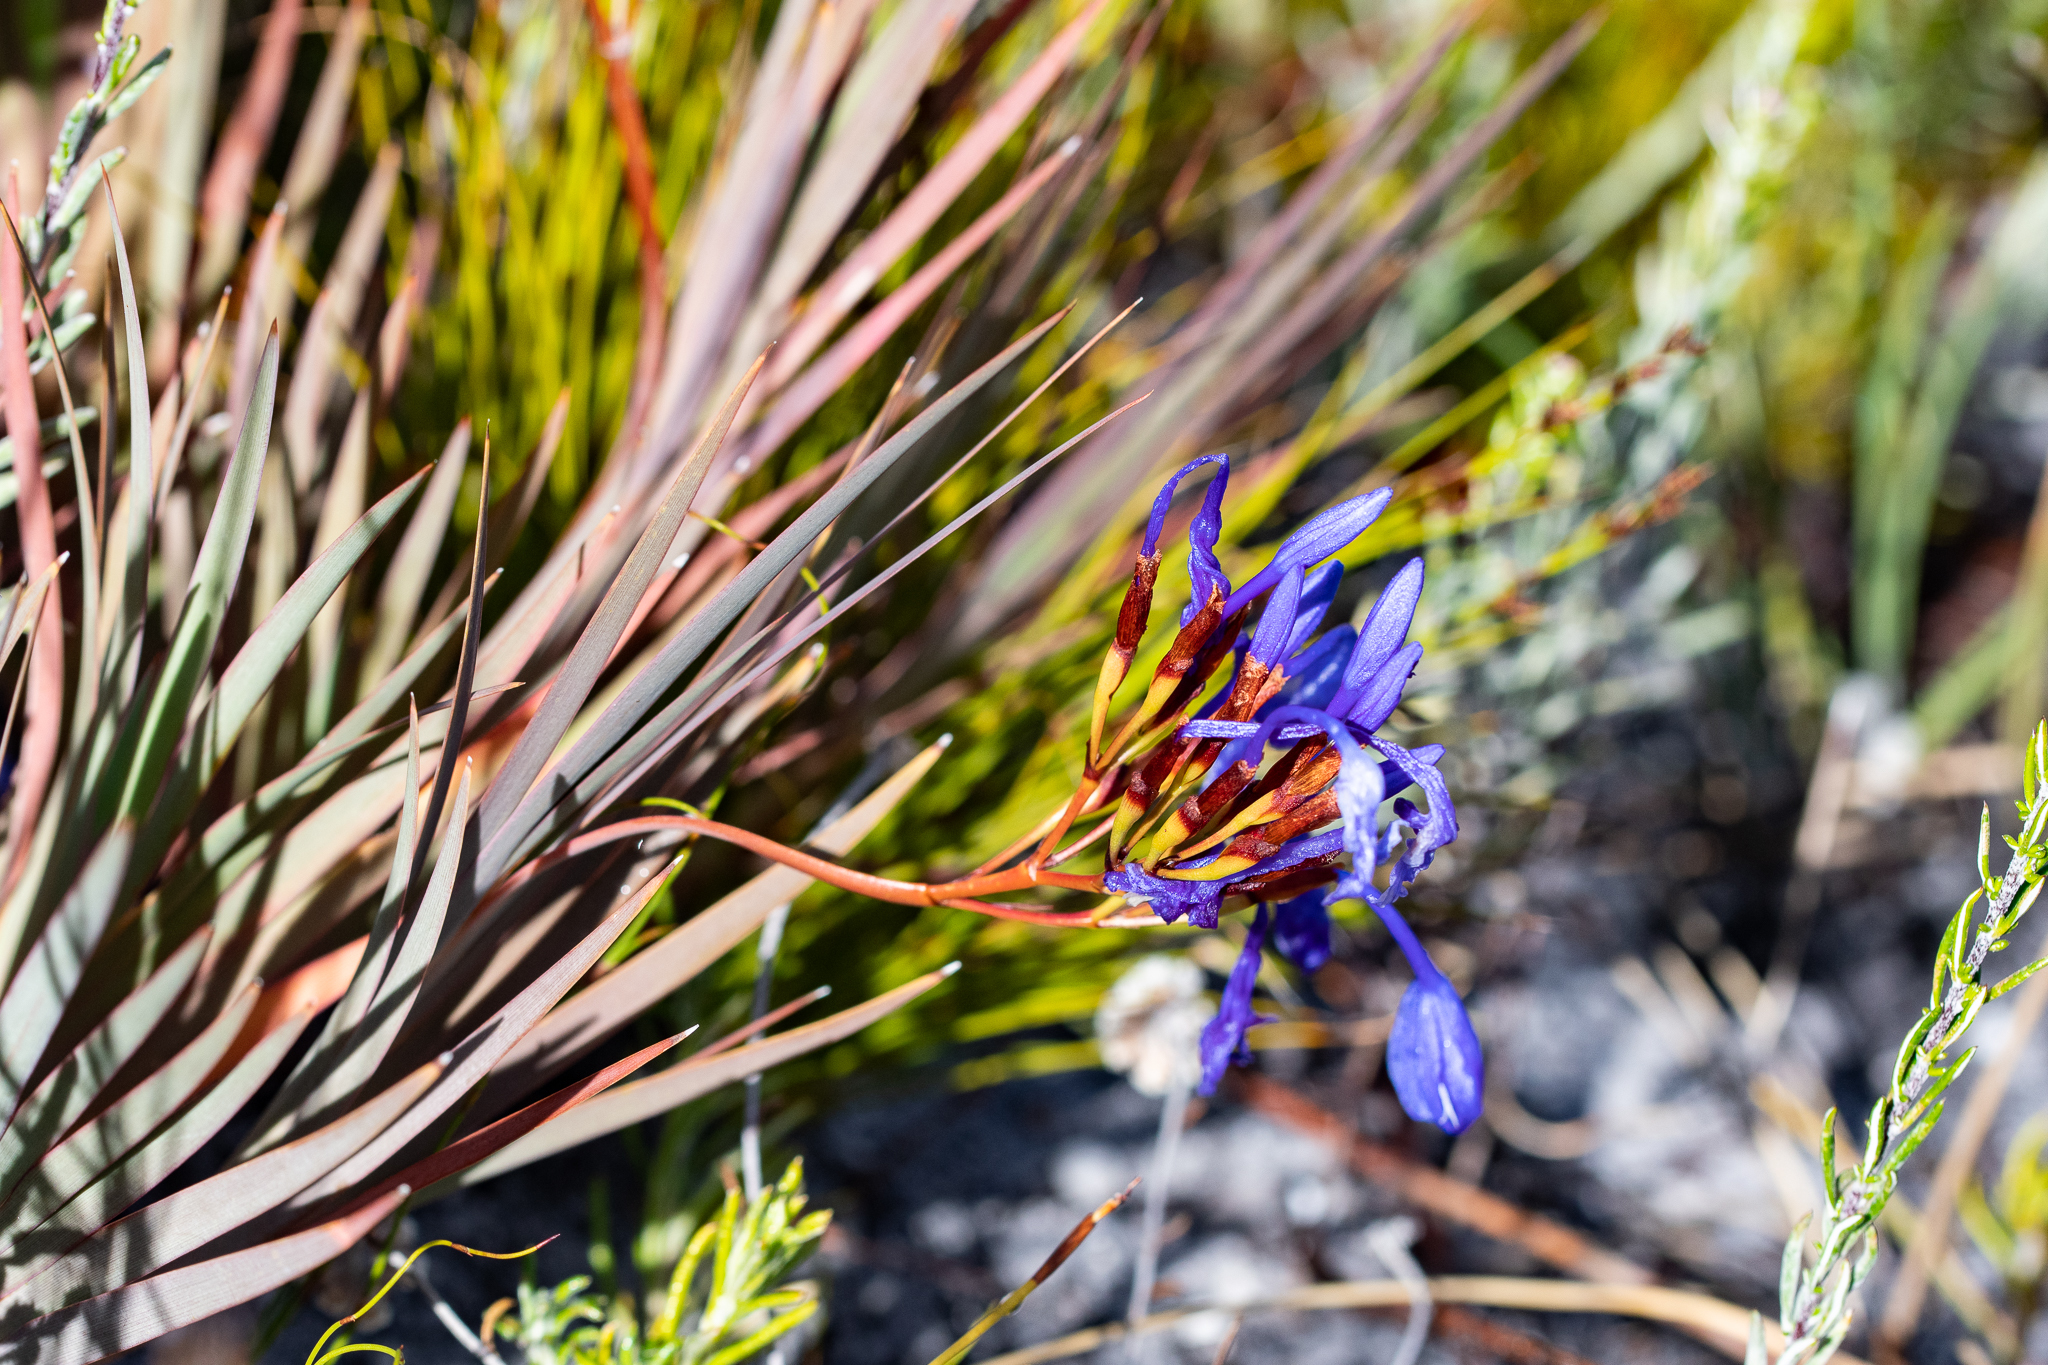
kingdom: Plantae
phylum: Tracheophyta
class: Liliopsida
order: Asparagales
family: Iridaceae
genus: Nivenia
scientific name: Nivenia stokoei
